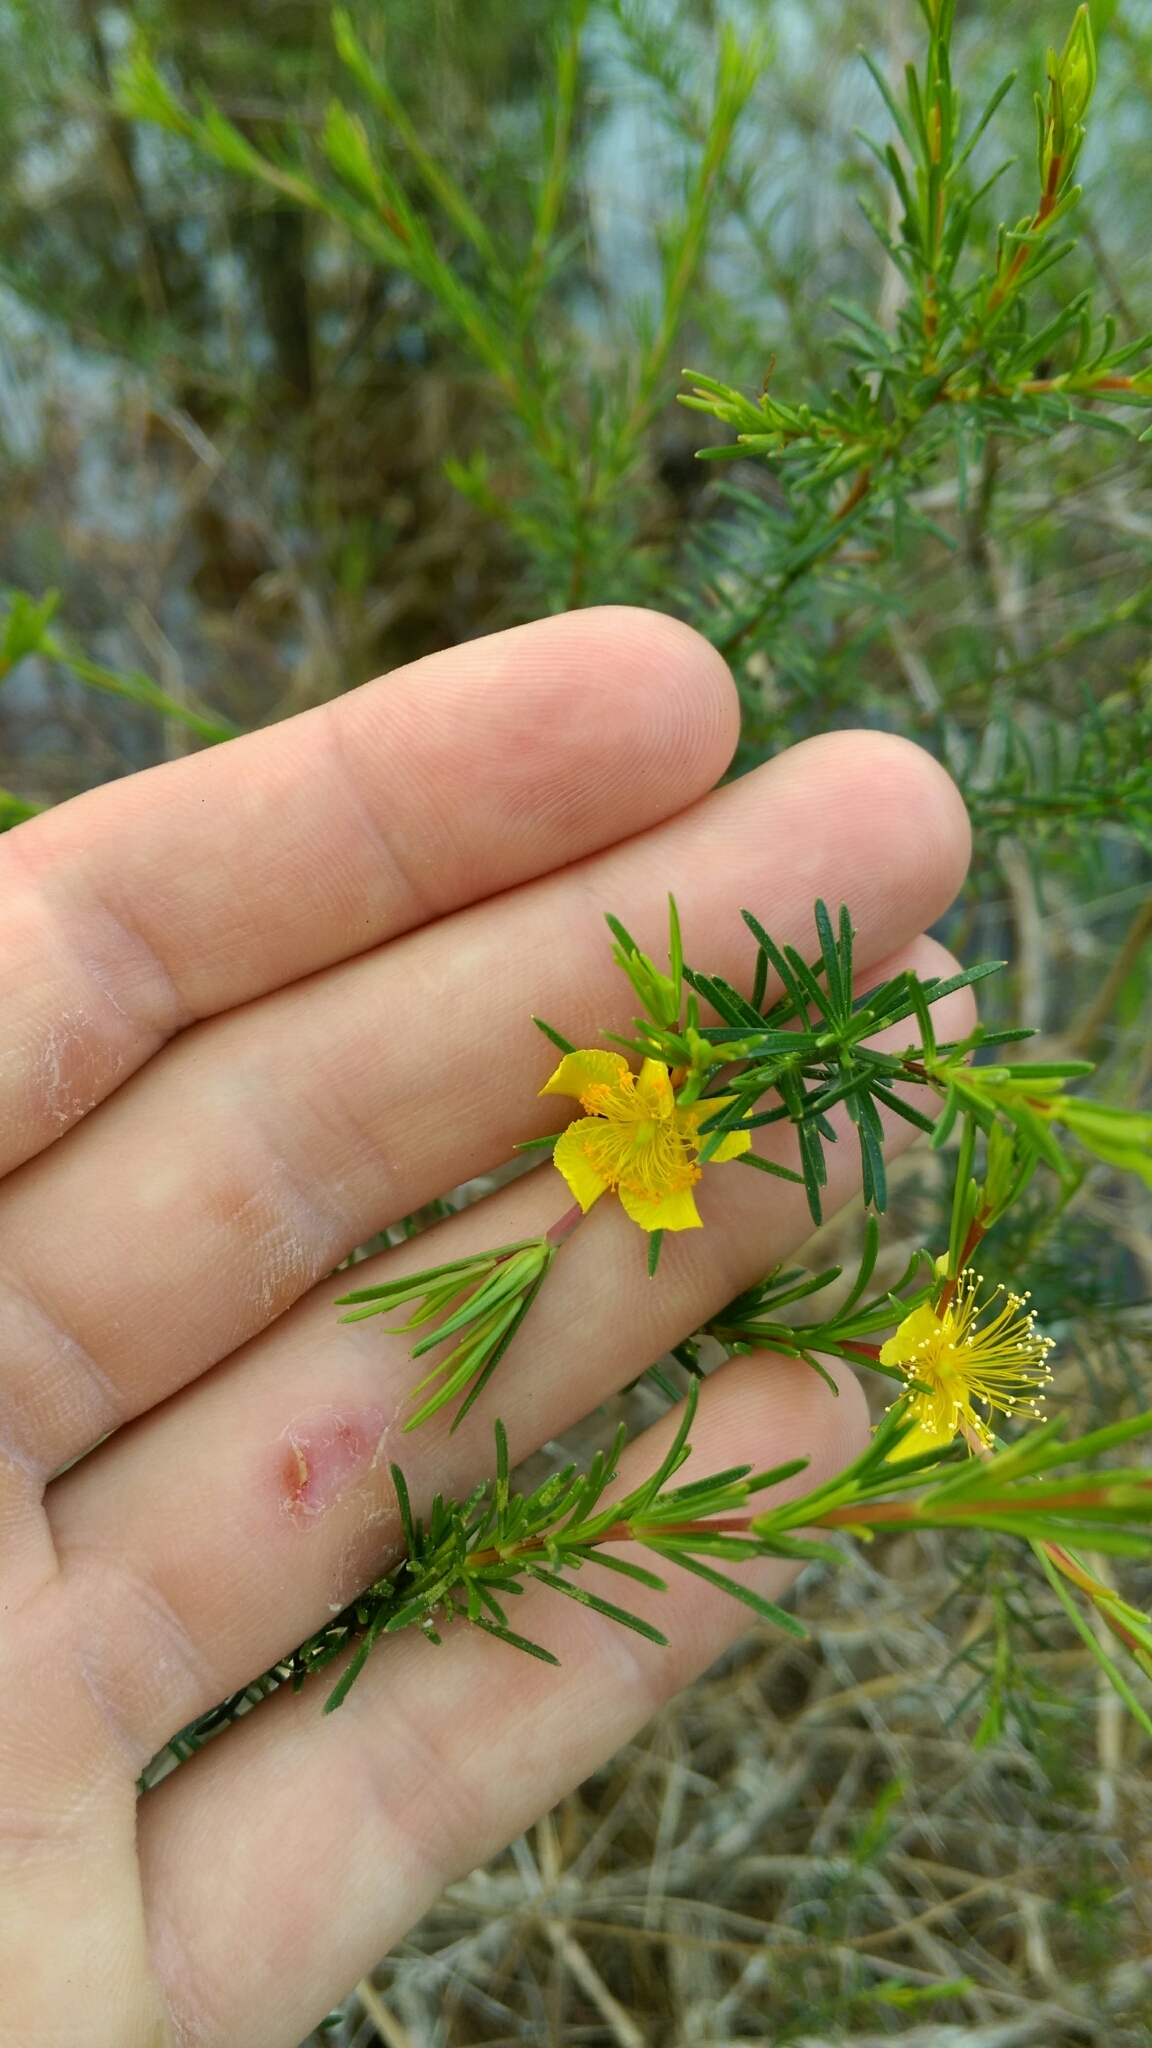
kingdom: Plantae
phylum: Tracheophyta
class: Magnoliopsida
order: Malpighiales
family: Hypericaceae
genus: Hypericum
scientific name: Hypericum fasciculatum
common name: Peelbark st. john's wort
